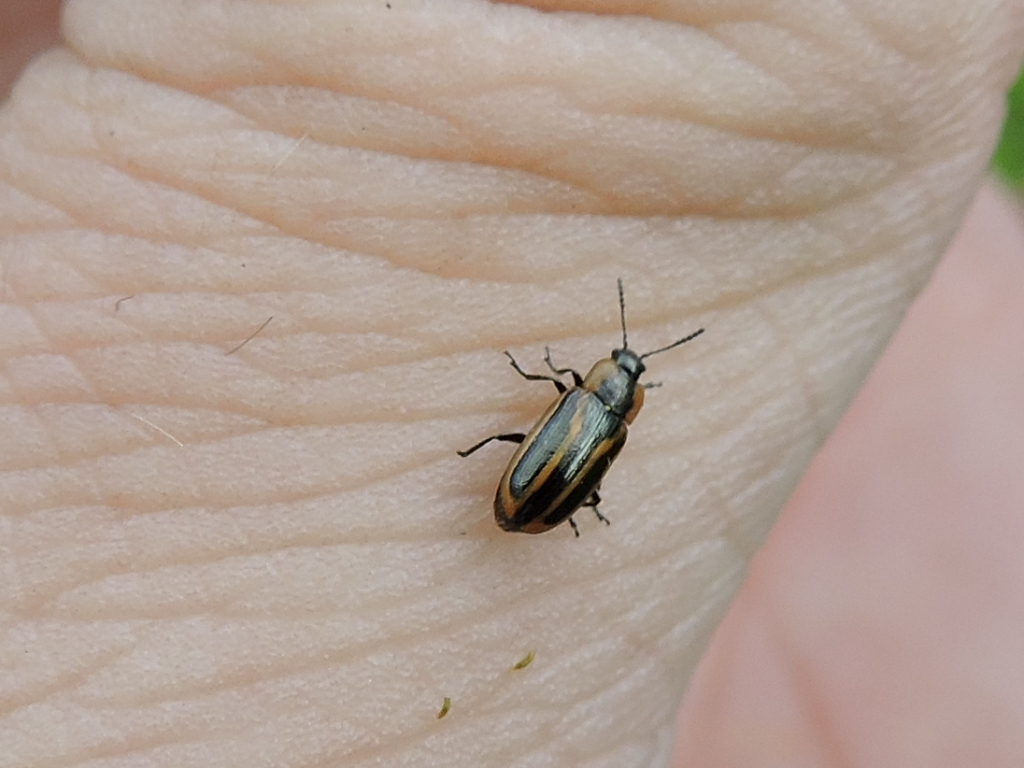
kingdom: Animalia
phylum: Arthropoda
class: Insecta
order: Coleoptera
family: Chrysomelidae
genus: Prasocuris
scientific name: Prasocuris vittata
